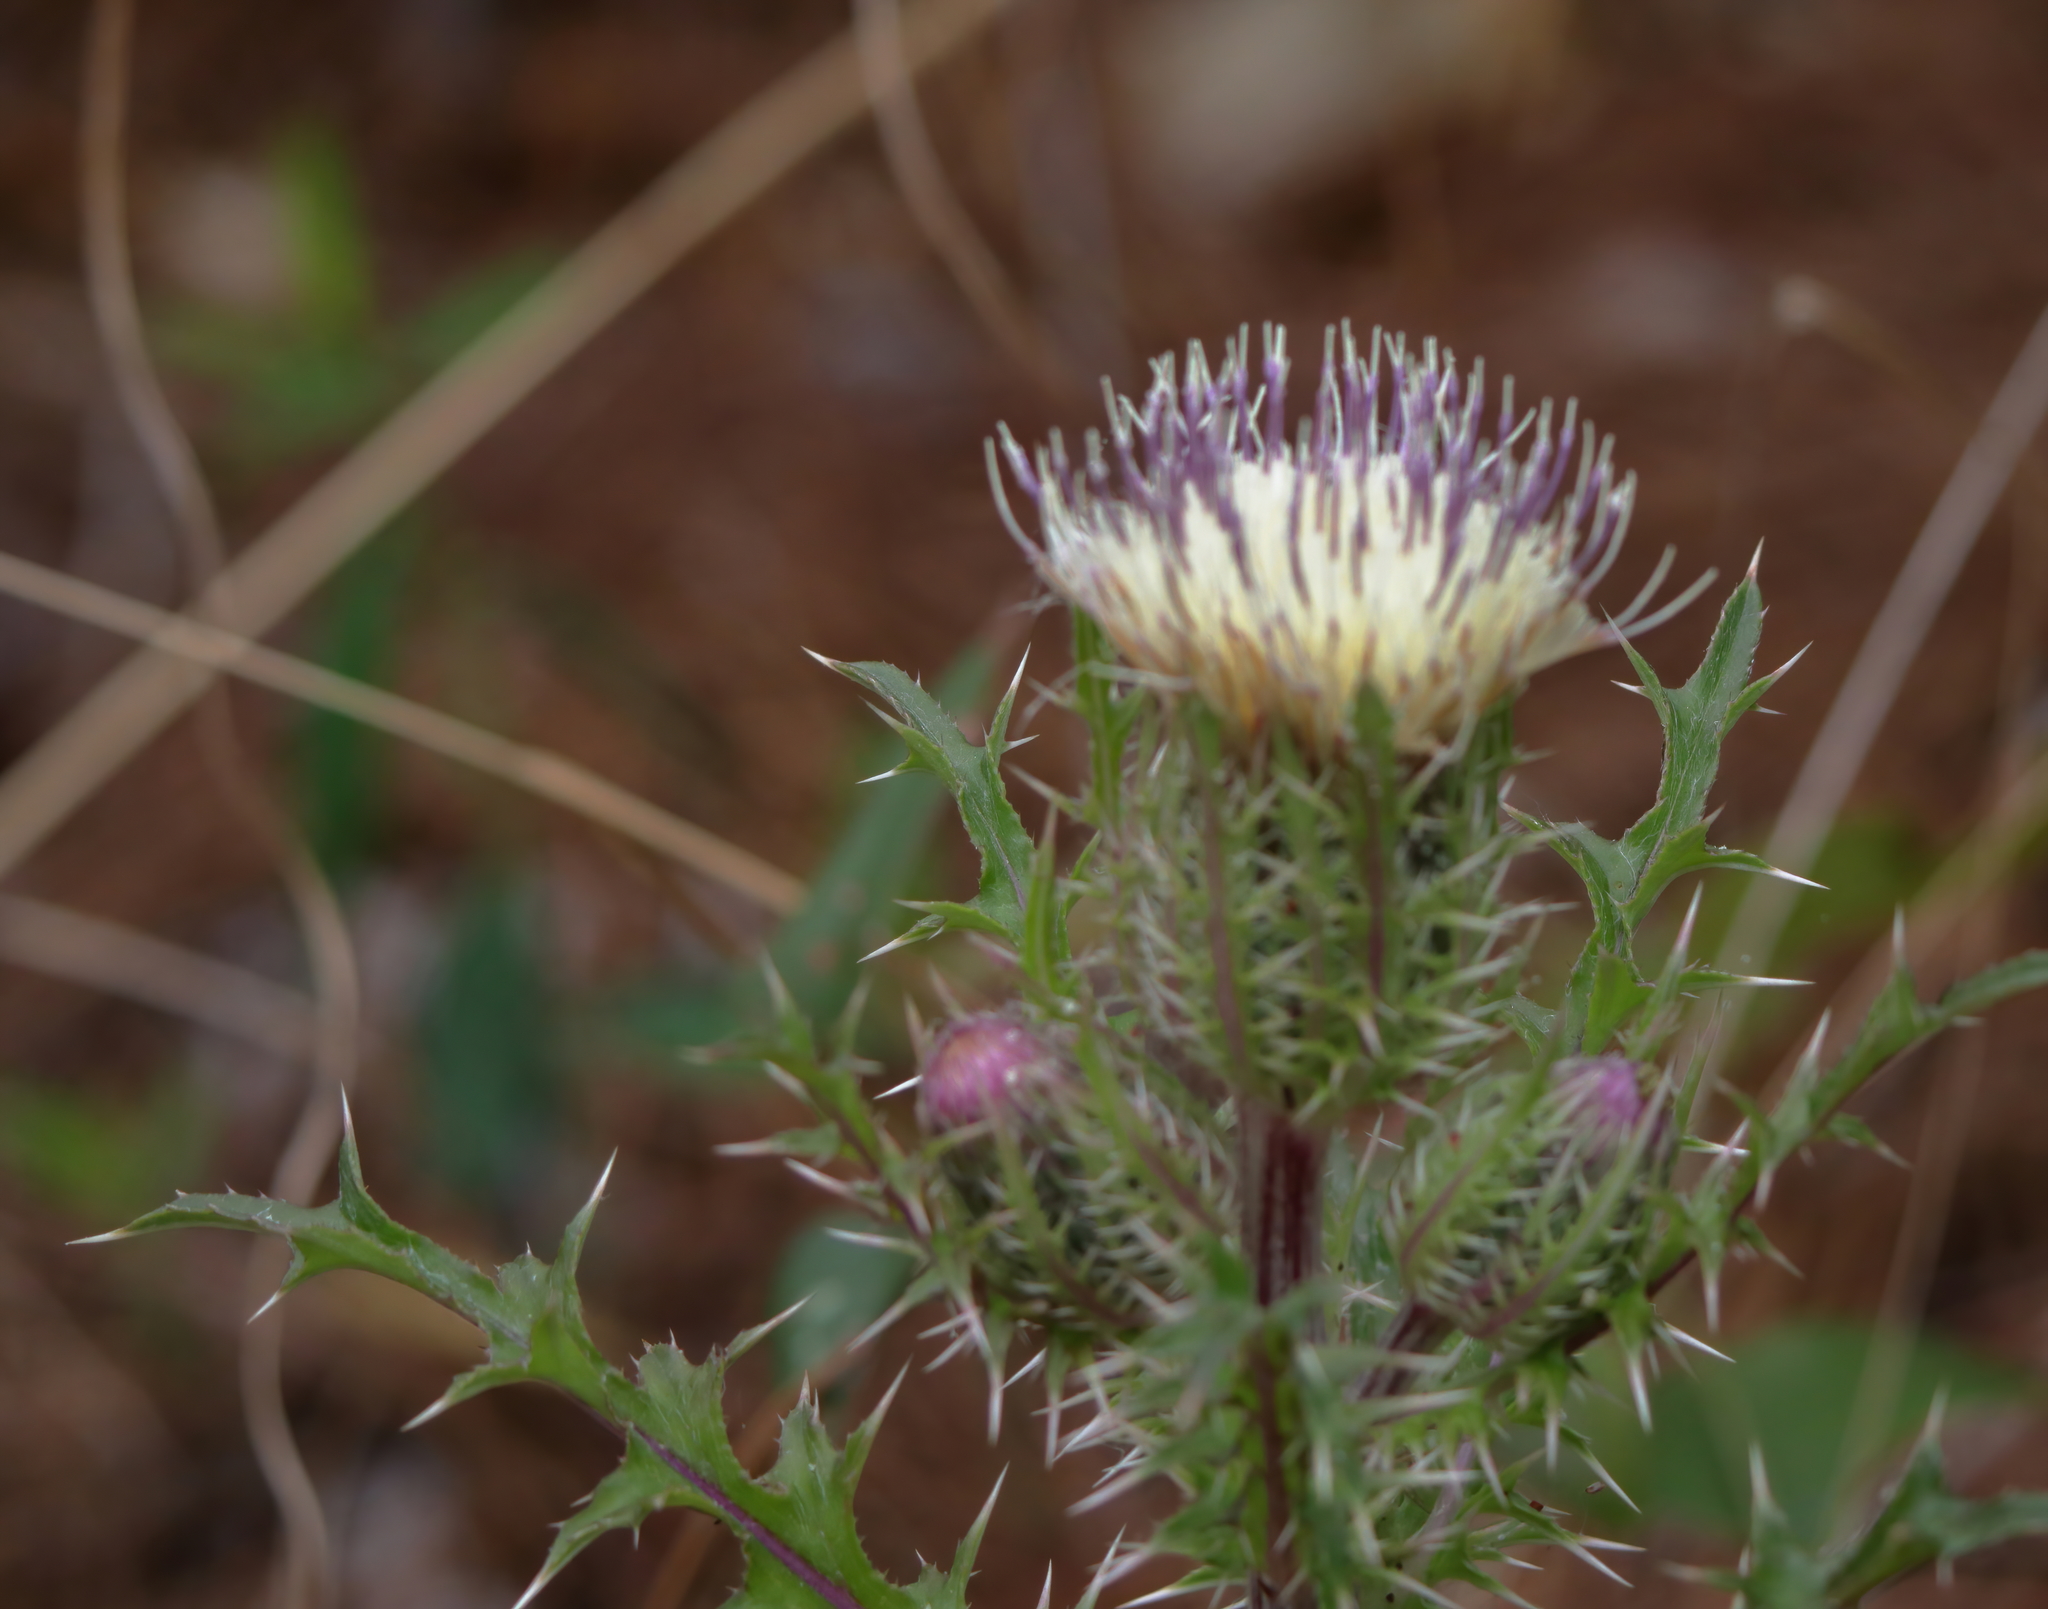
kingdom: Plantae
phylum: Tracheophyta
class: Magnoliopsida
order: Asterales
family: Asteraceae
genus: Cirsium
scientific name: Cirsium horridulum
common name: Bristly thistle
